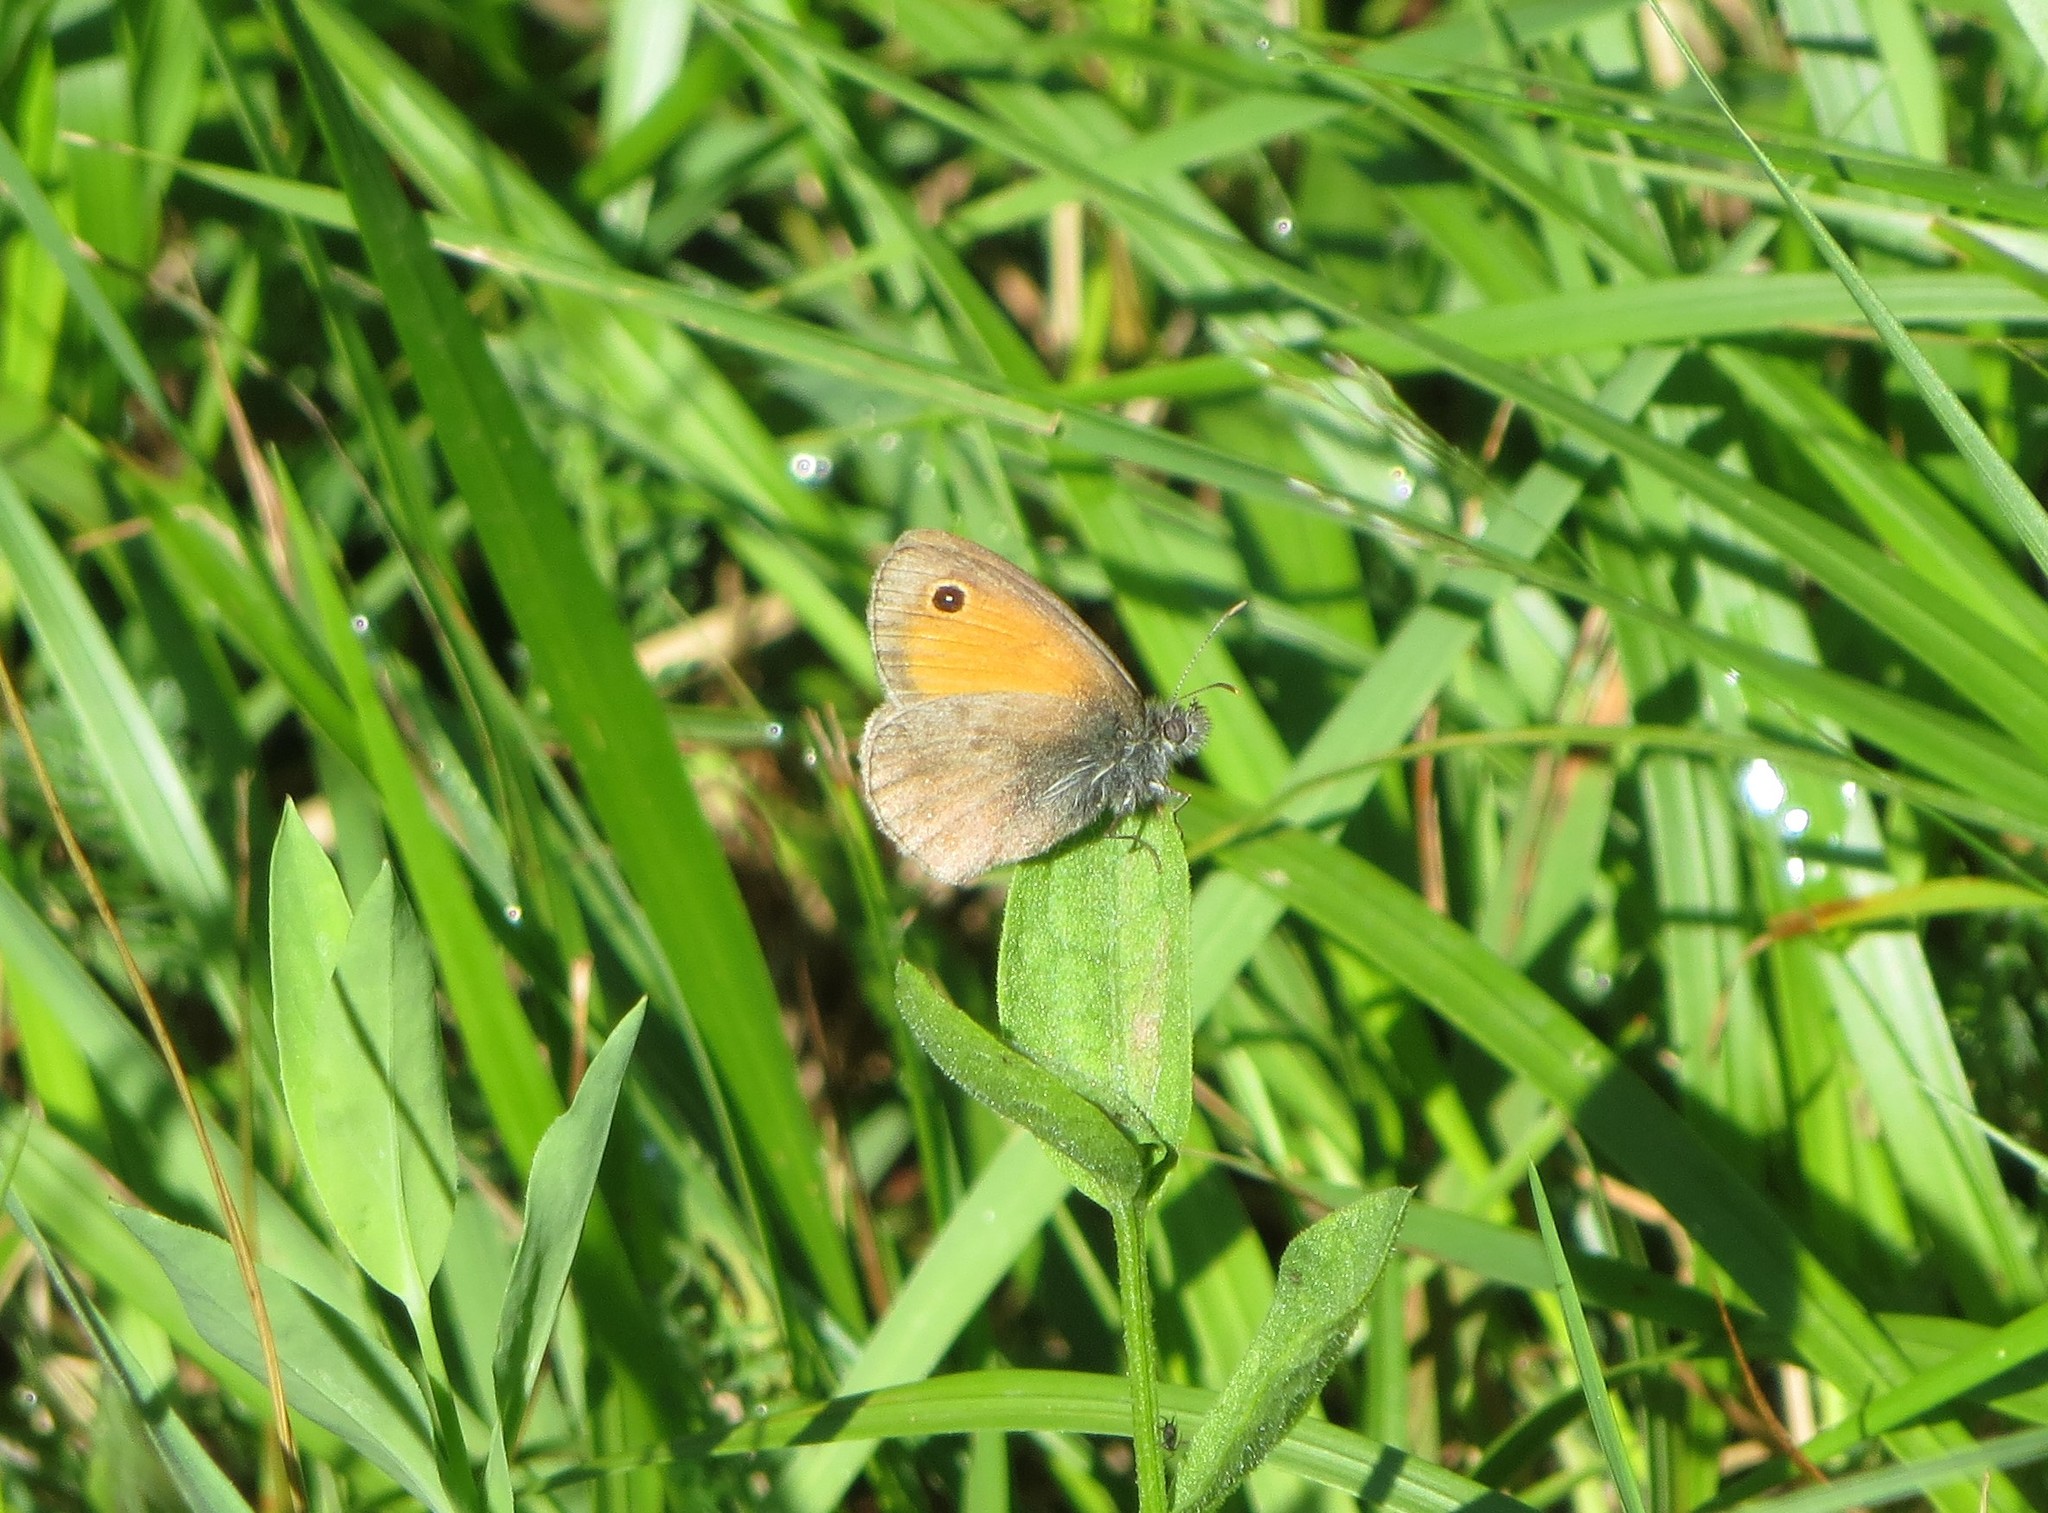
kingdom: Animalia
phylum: Arthropoda
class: Insecta
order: Lepidoptera
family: Nymphalidae
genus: Coenonympha
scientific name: Coenonympha pamphilus
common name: Small heath
